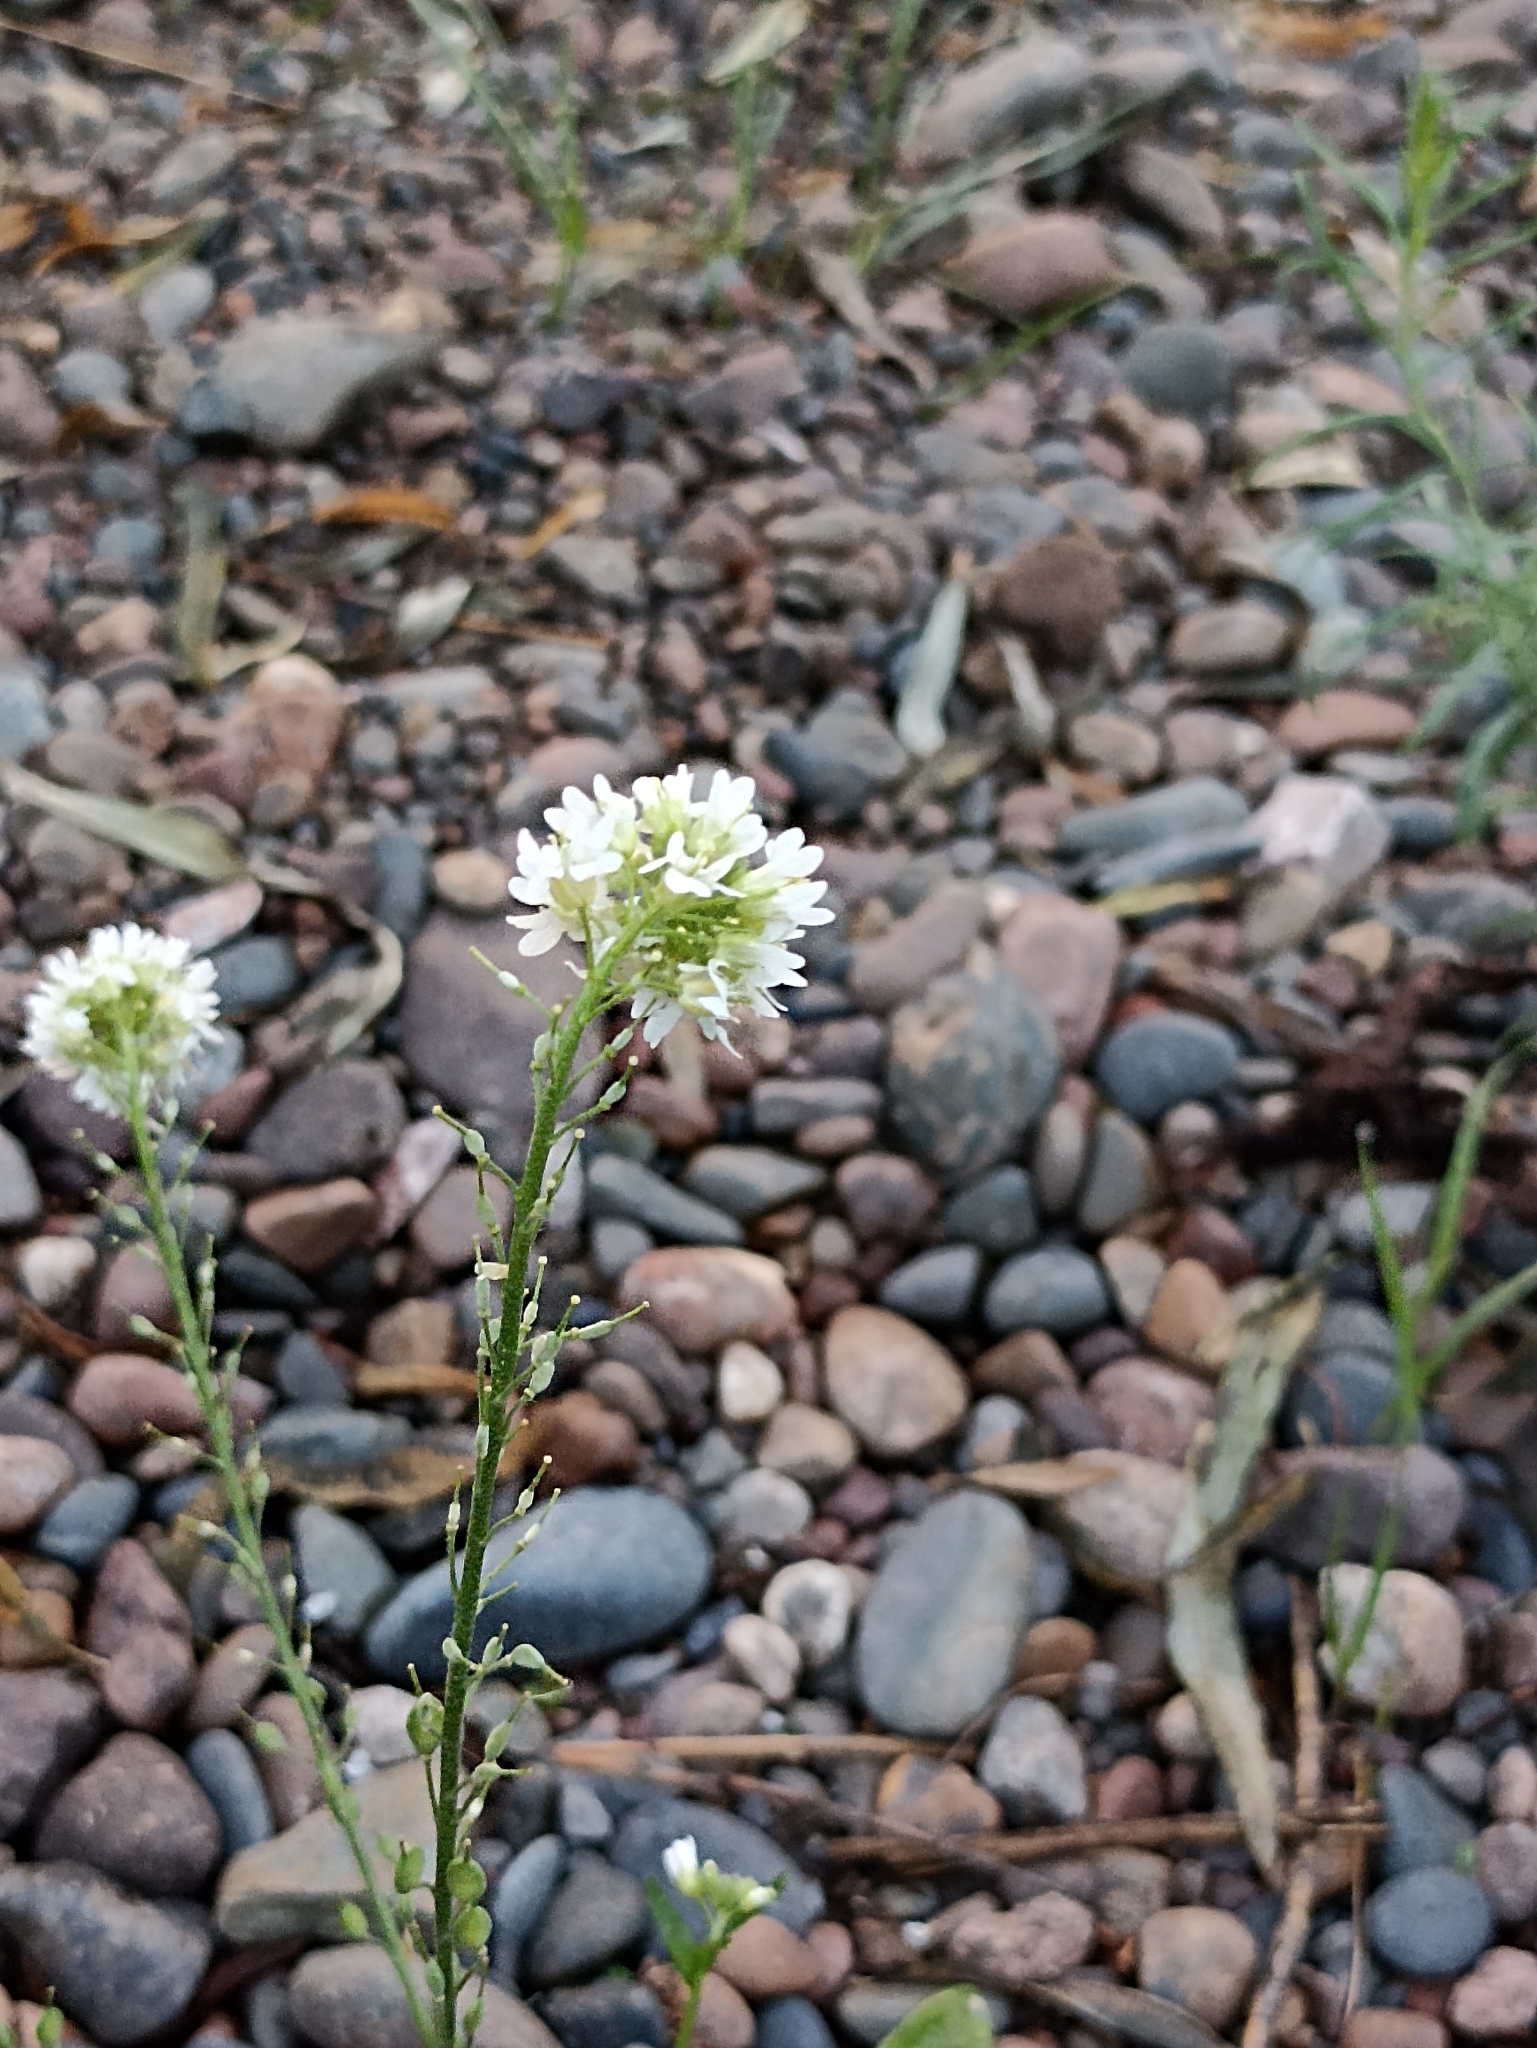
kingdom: Plantae
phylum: Tracheophyta
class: Magnoliopsida
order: Brassicales
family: Brassicaceae
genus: Berteroa
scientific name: Berteroa incana
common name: Hoary alison
